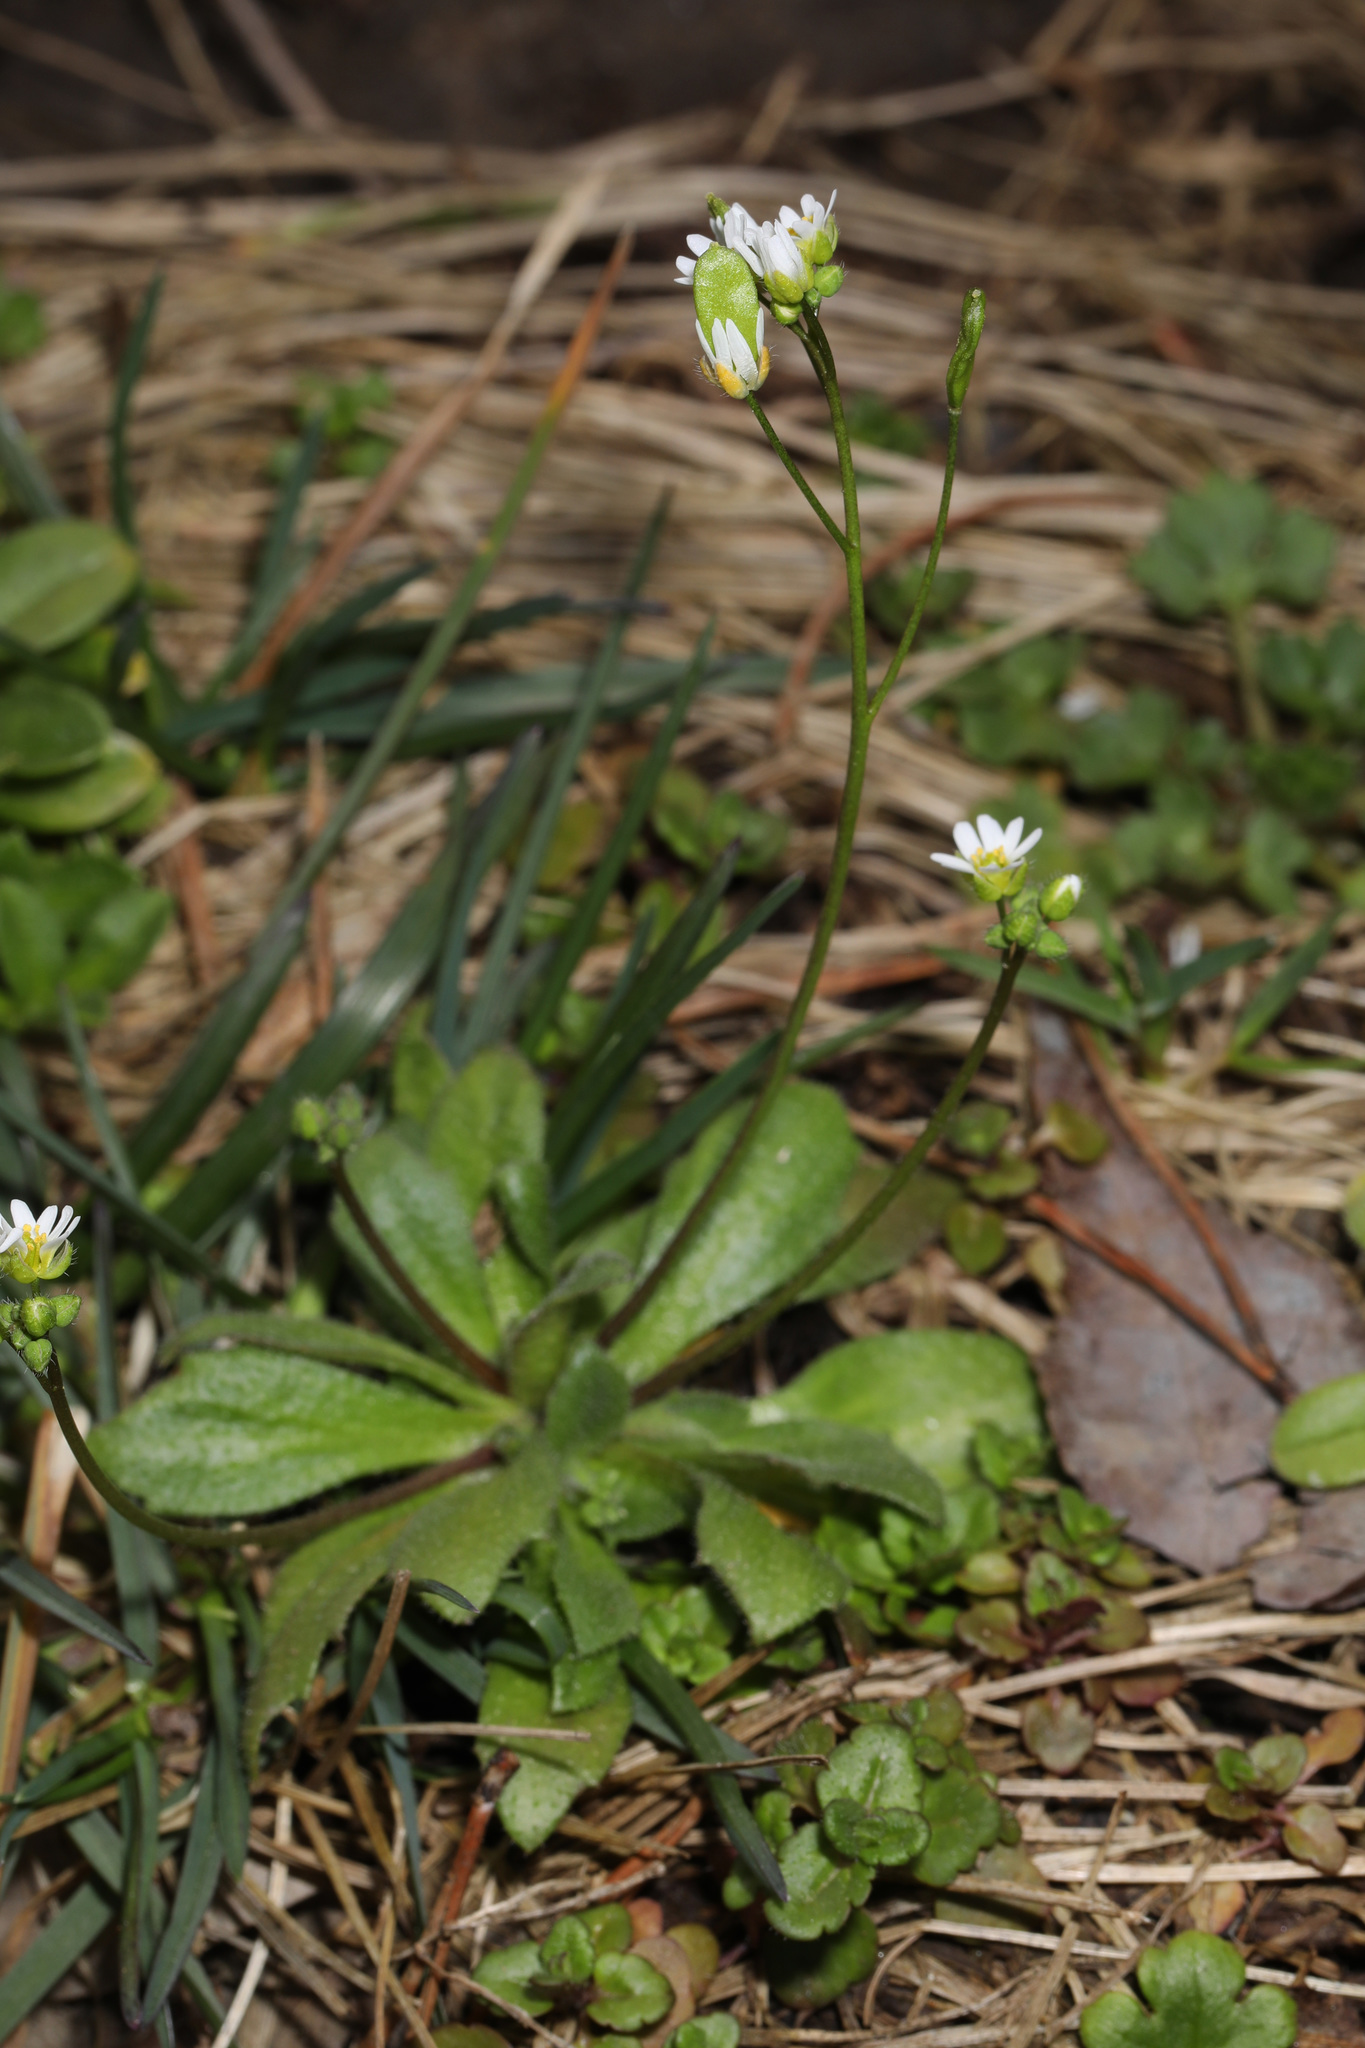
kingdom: Plantae
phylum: Tracheophyta
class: Magnoliopsida
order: Brassicales
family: Brassicaceae
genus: Draba
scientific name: Draba verna
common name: Spring draba
